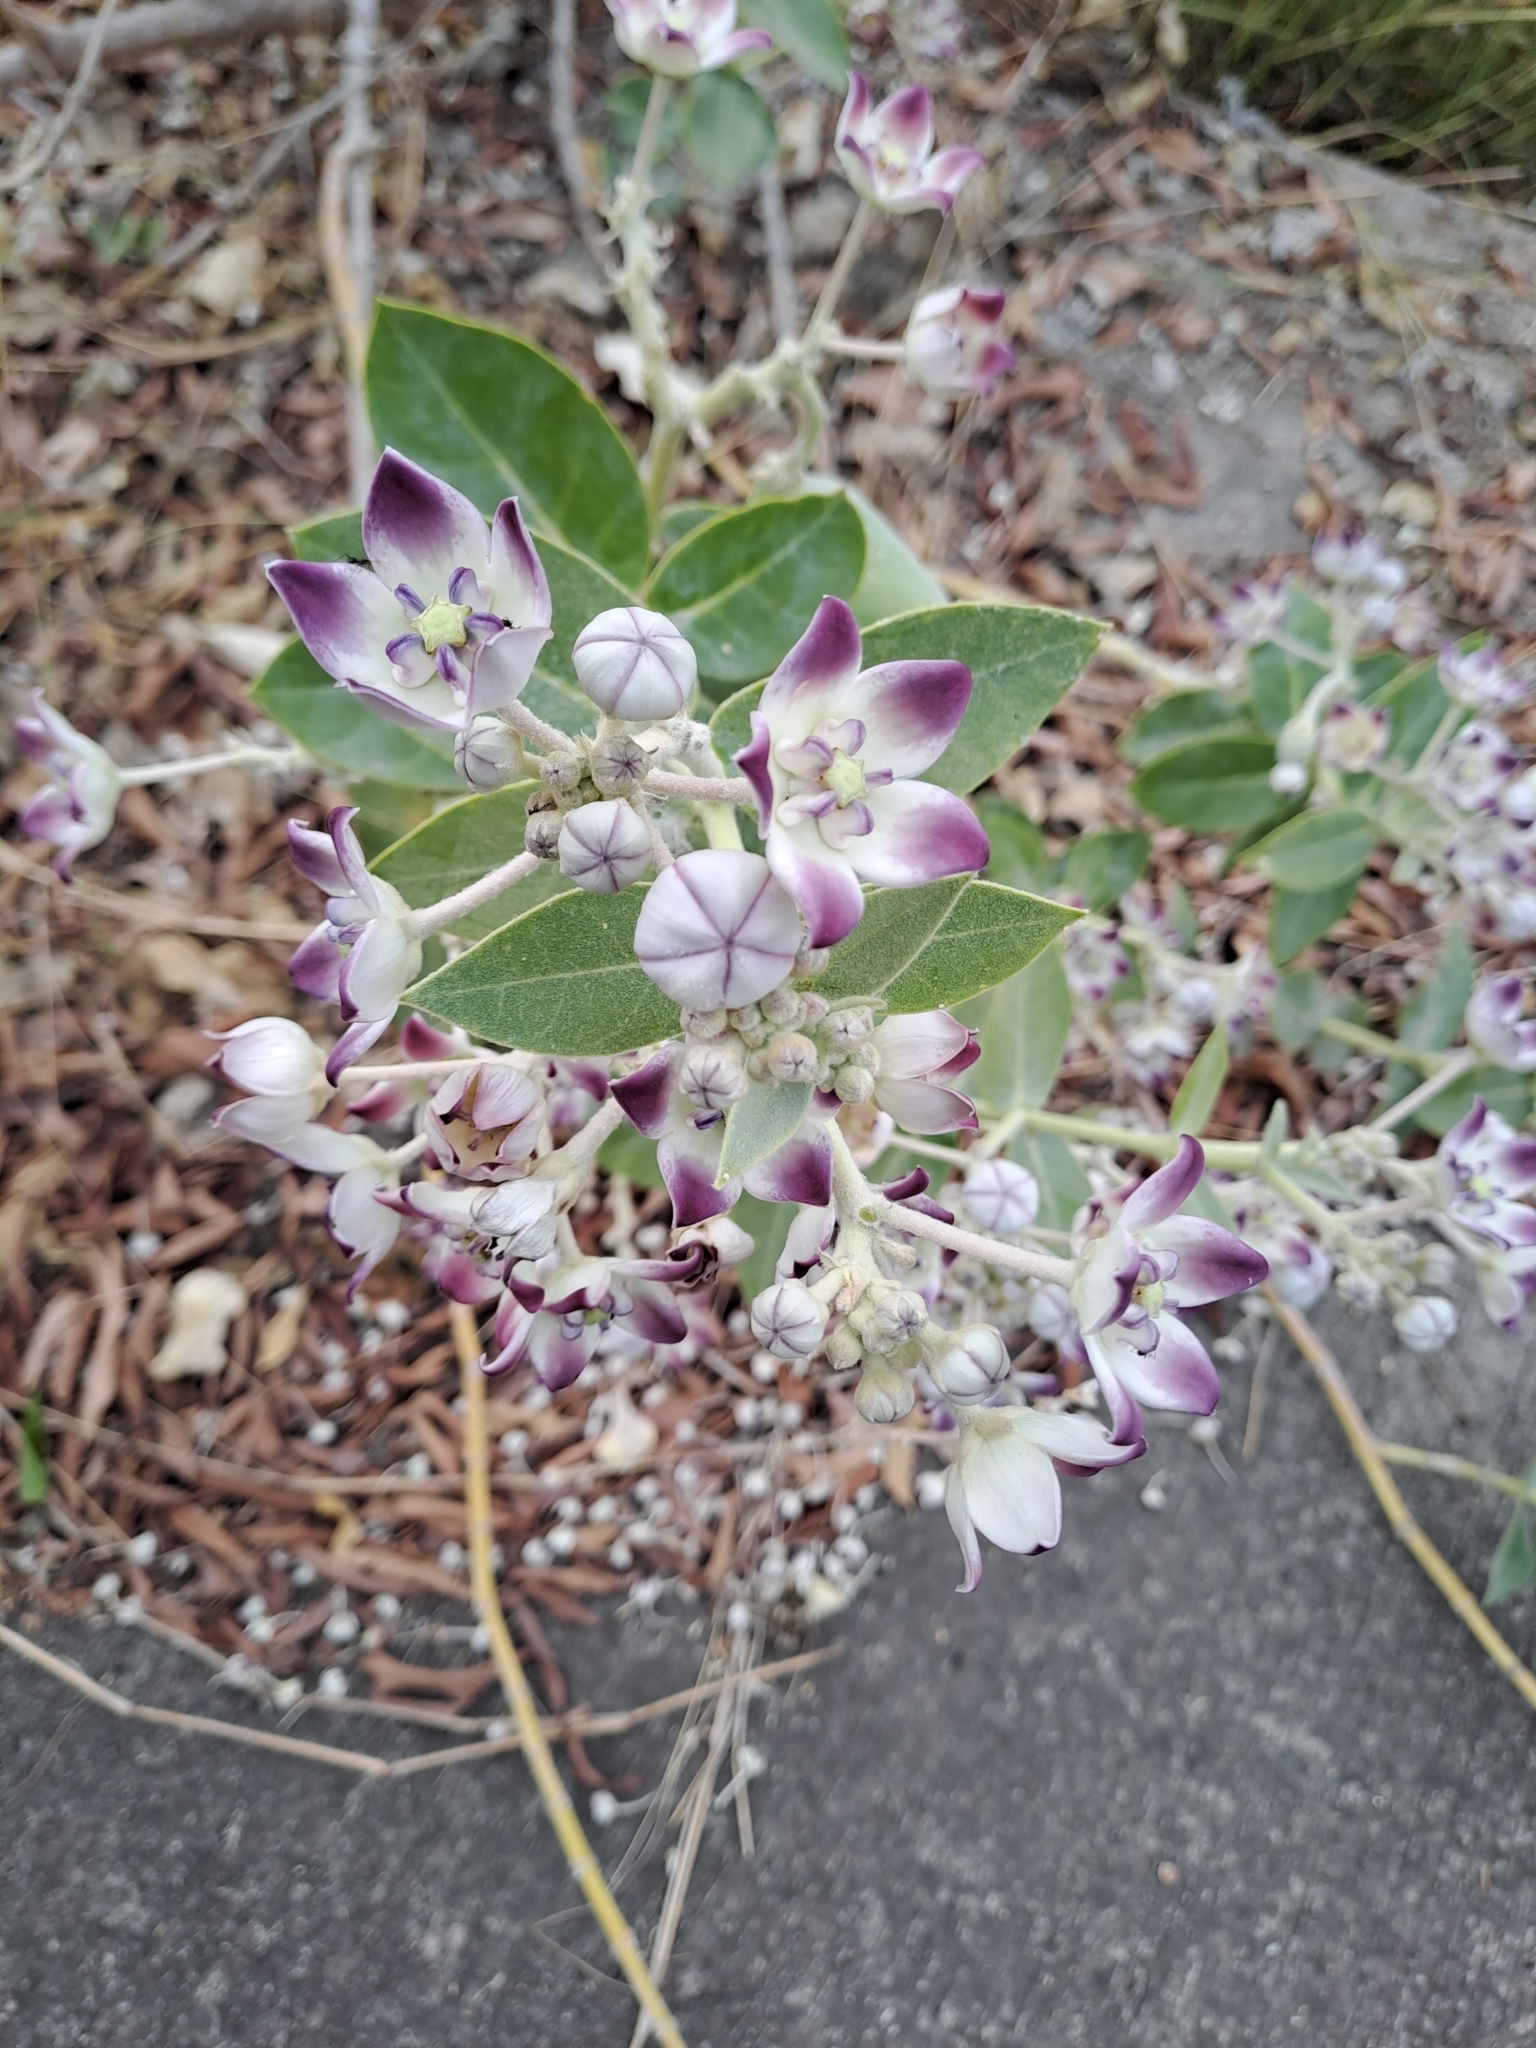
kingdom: Plantae
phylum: Tracheophyta
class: Magnoliopsida
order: Gentianales
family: Apocynaceae
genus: Calotropis
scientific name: Calotropis procera
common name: Roostertree
